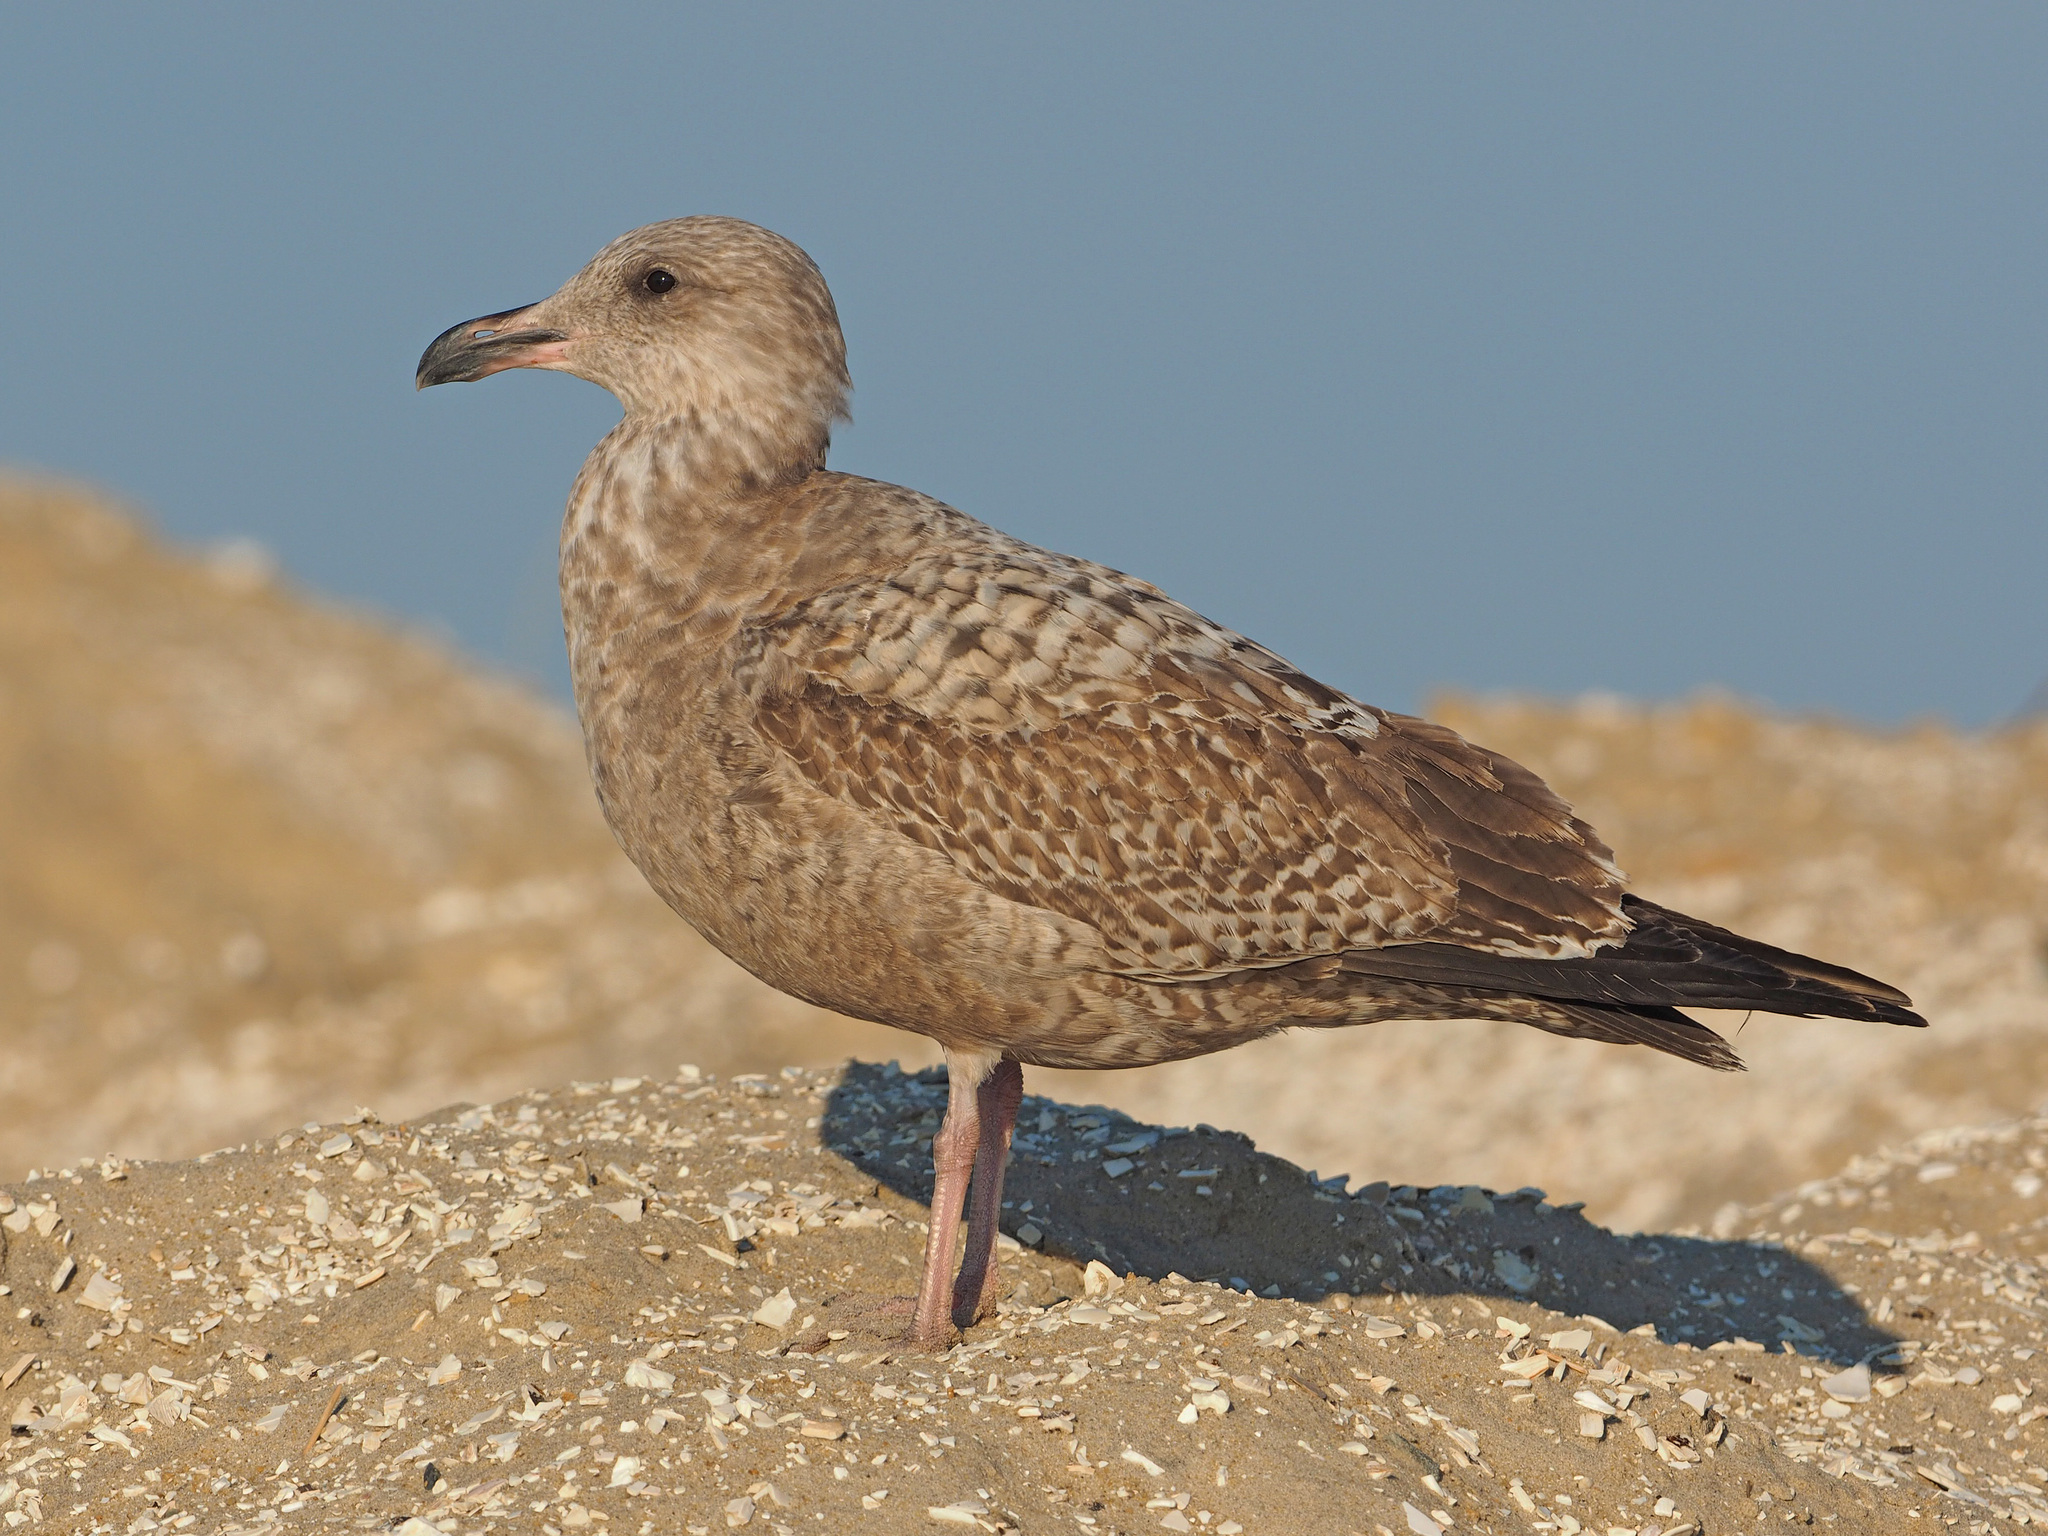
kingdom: Animalia
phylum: Chordata
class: Aves
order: Charadriiformes
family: Laridae
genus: Larus
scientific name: Larus argentatus
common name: Herring gull
